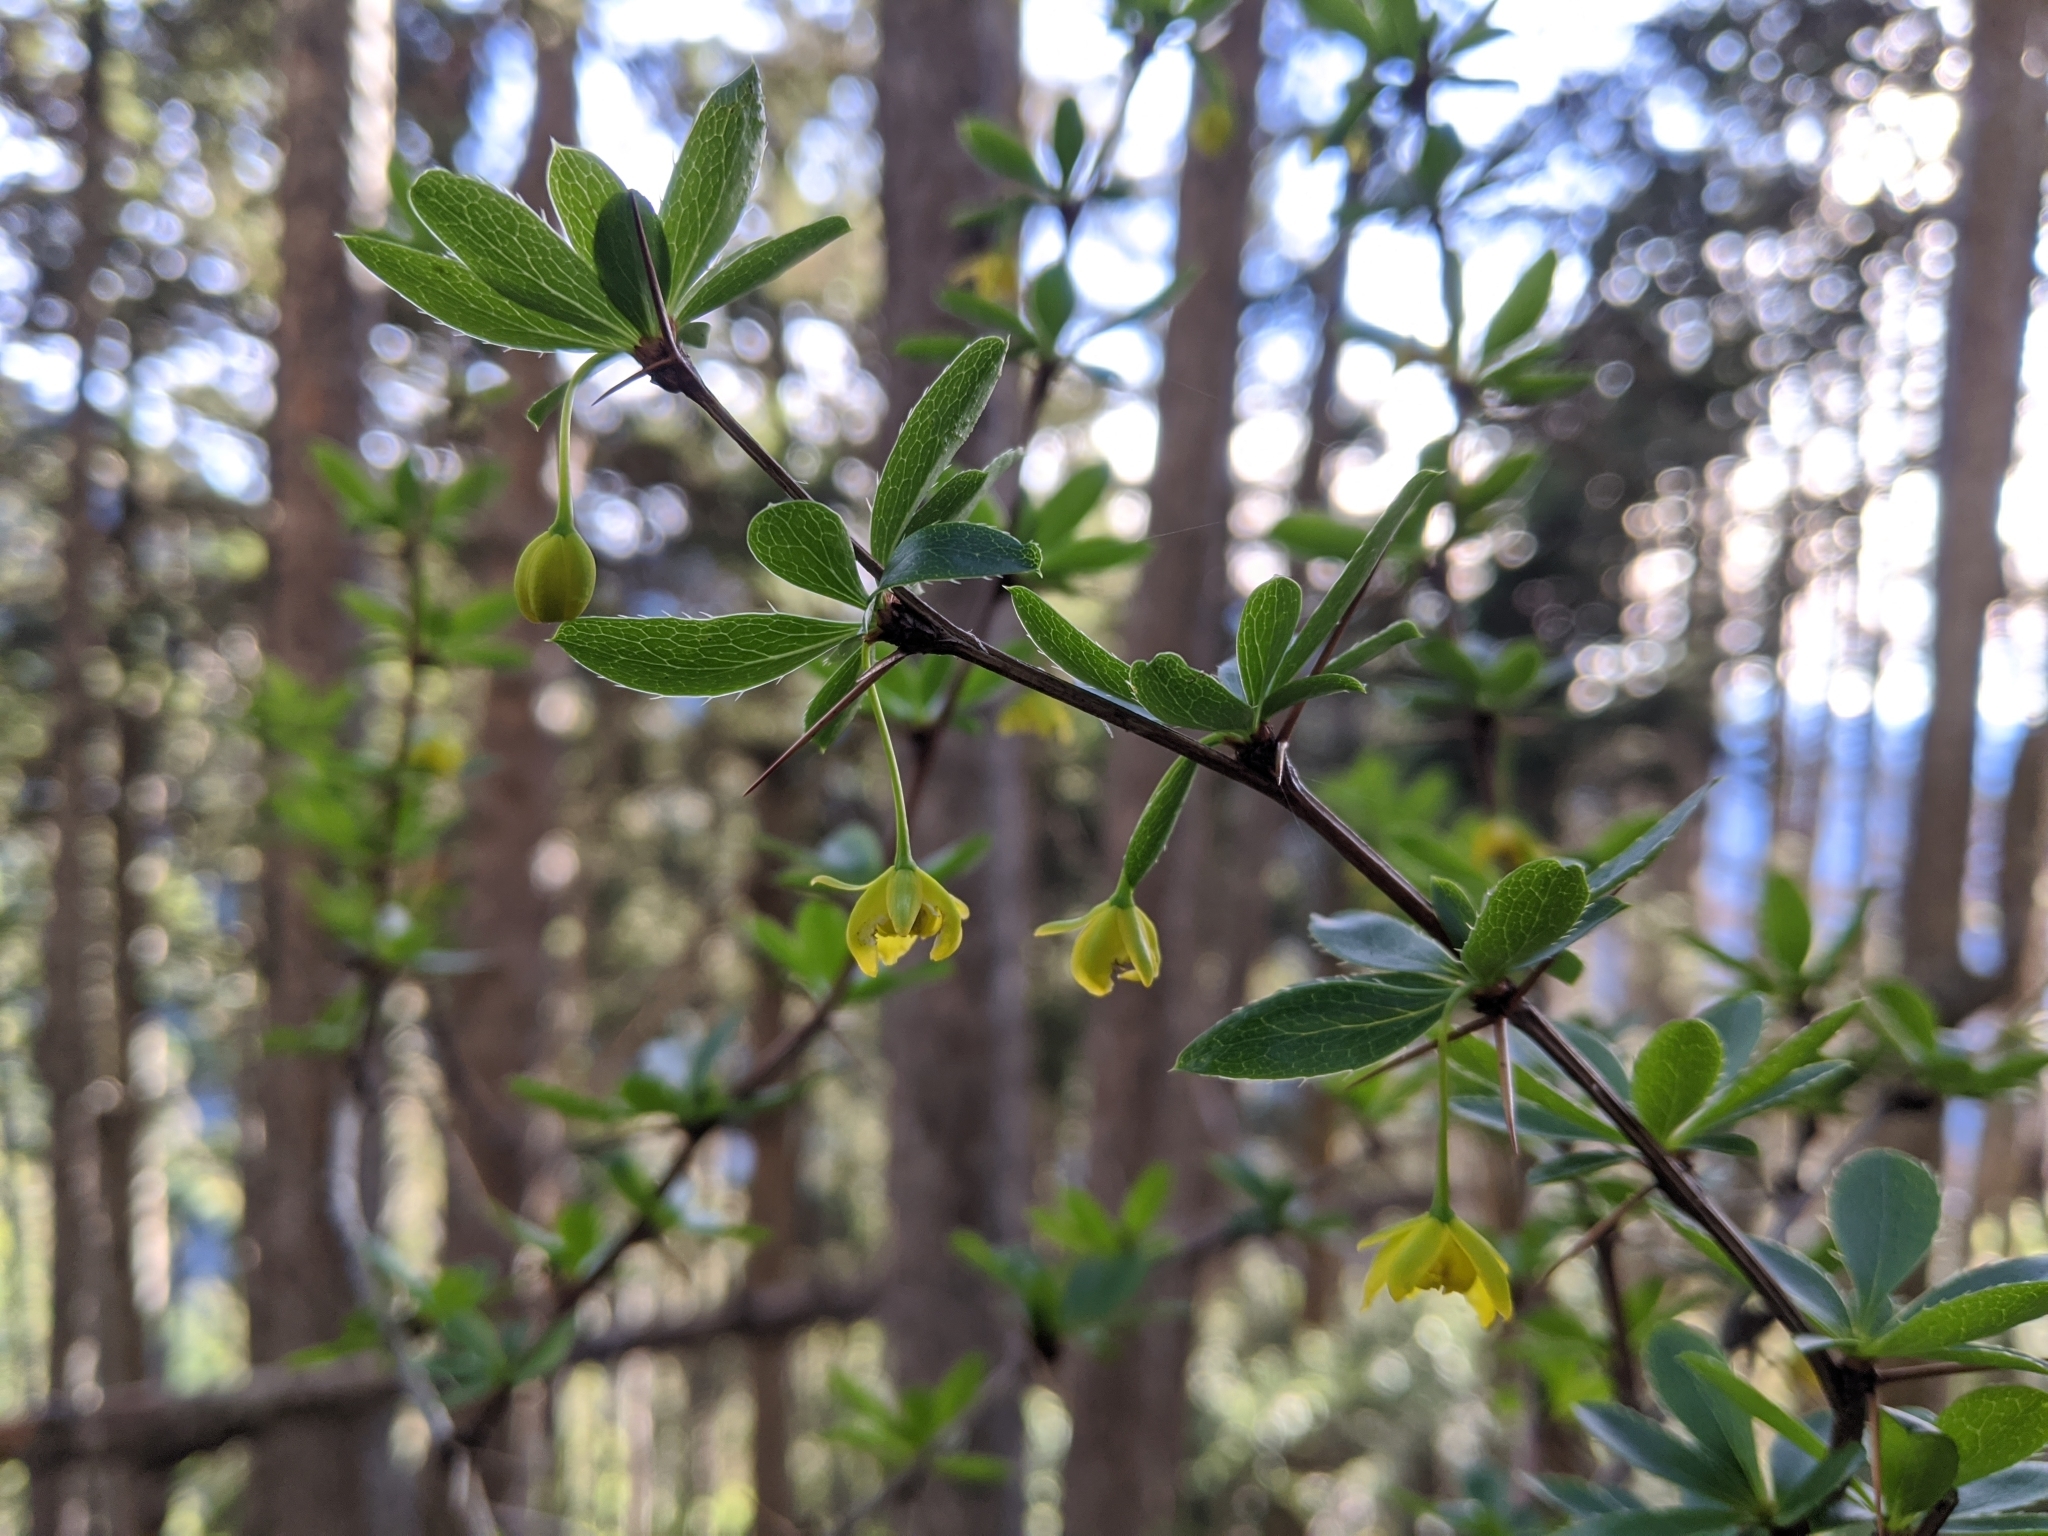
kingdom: Plantae
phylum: Tracheophyta
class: Magnoliopsida
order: Ranunculales
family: Berberidaceae
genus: Berberis
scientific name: Berberis morrisonensis
